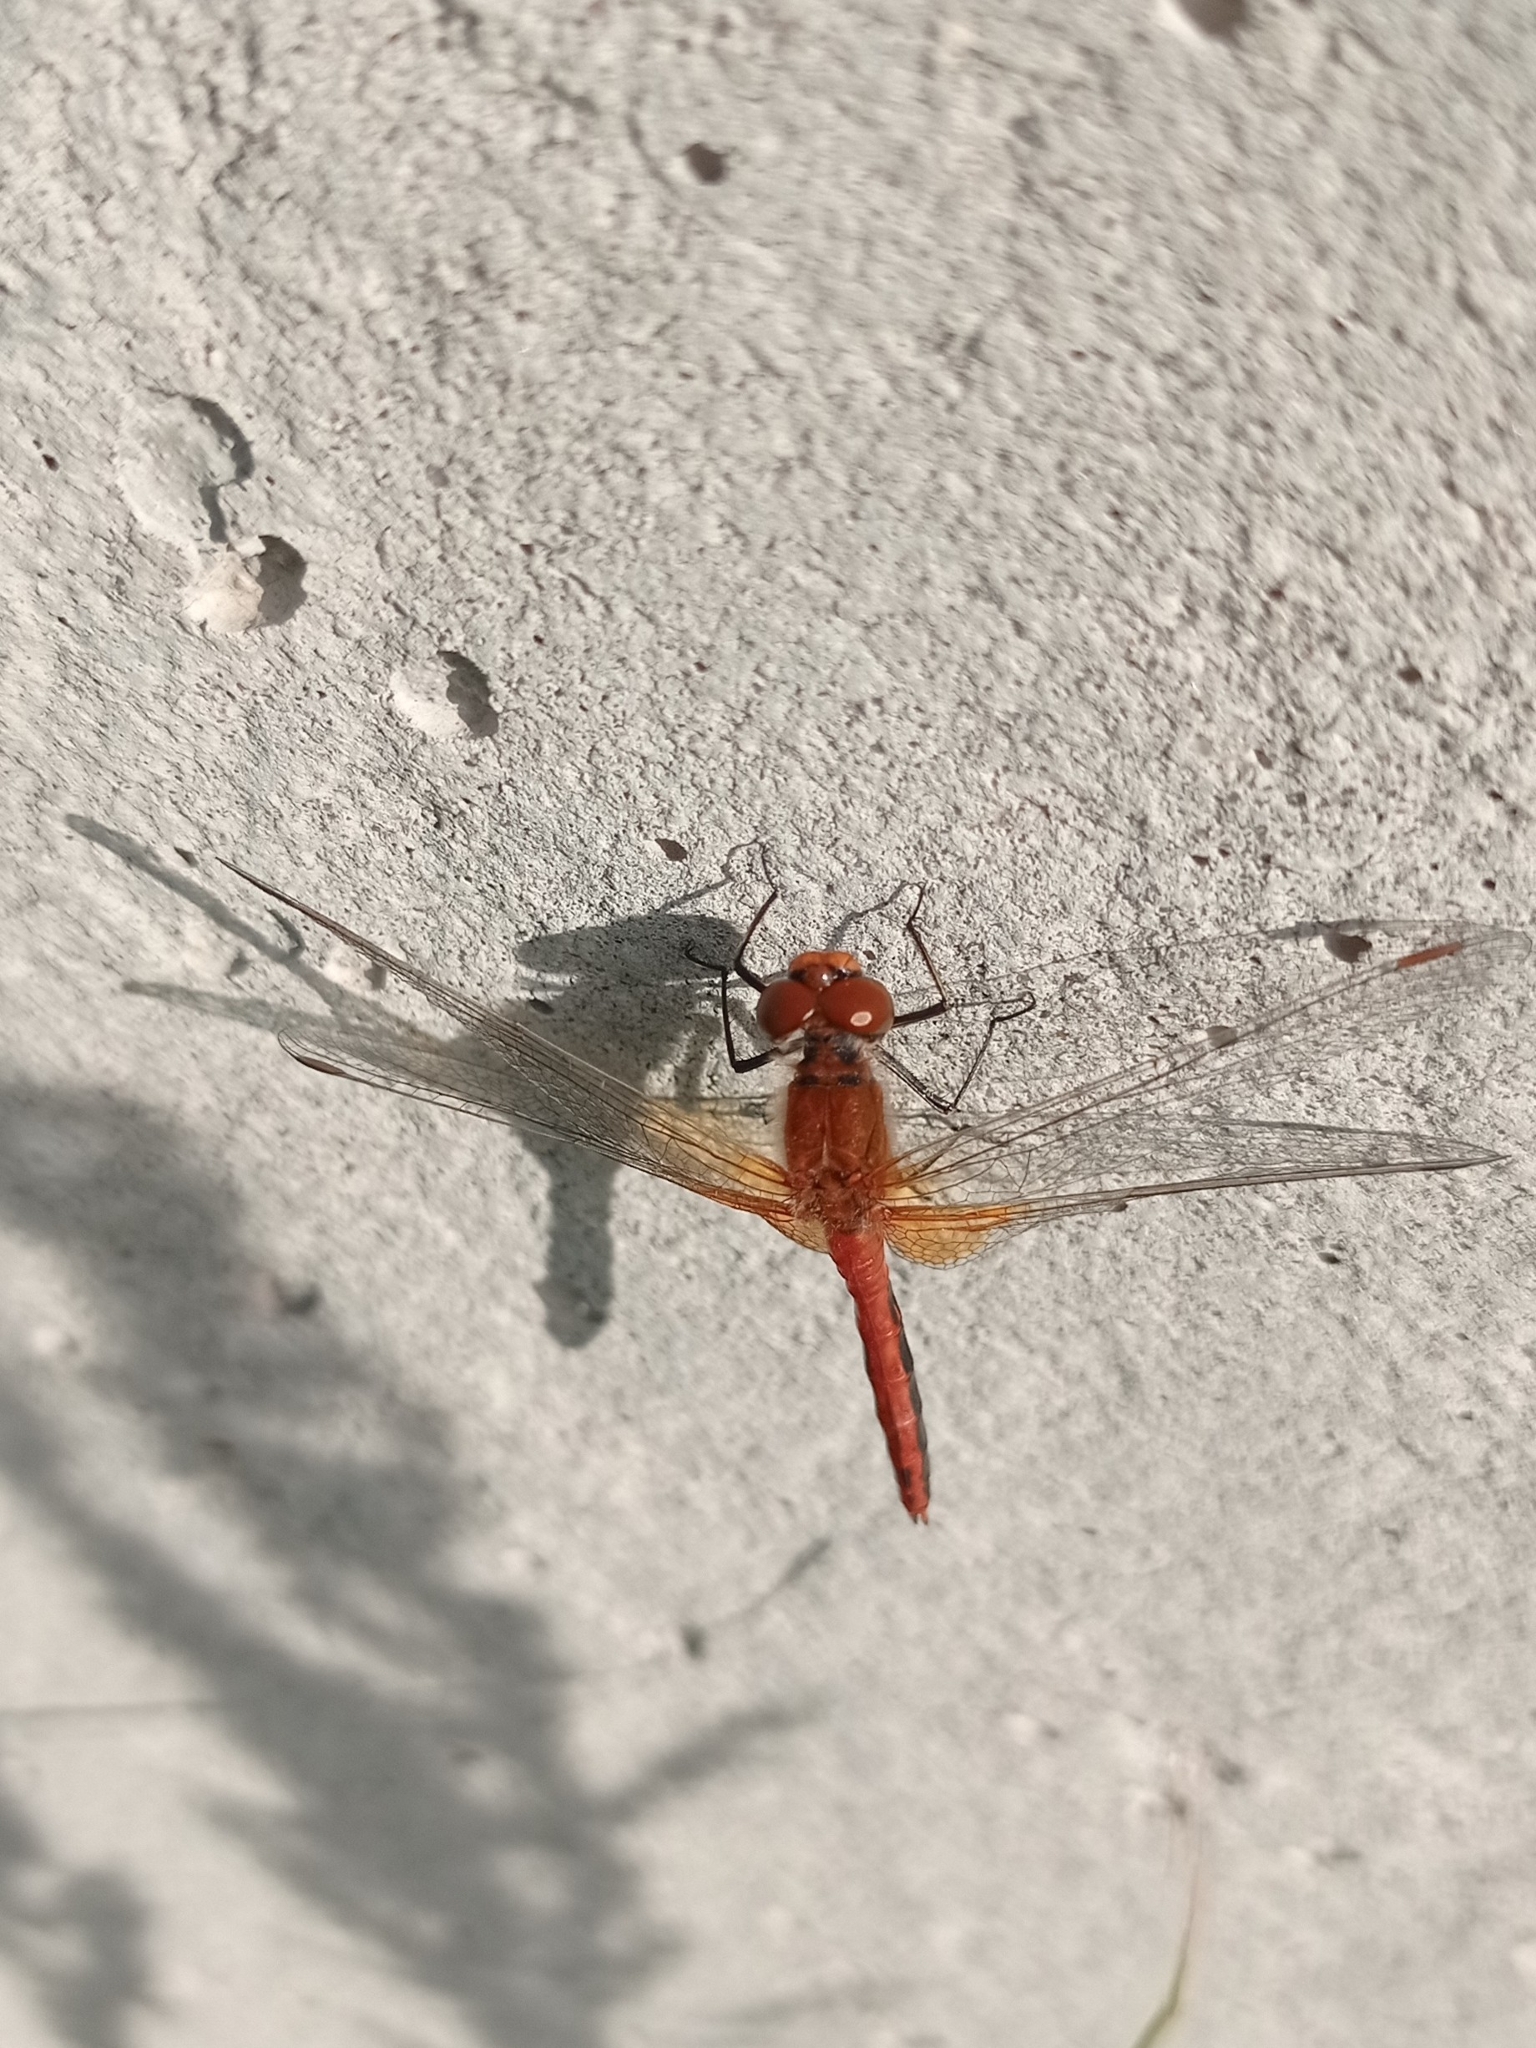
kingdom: Animalia
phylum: Arthropoda
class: Insecta
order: Odonata
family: Libellulidae
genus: Sympetrum
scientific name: Sympetrum flaveolum
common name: Yellow-winged darter
